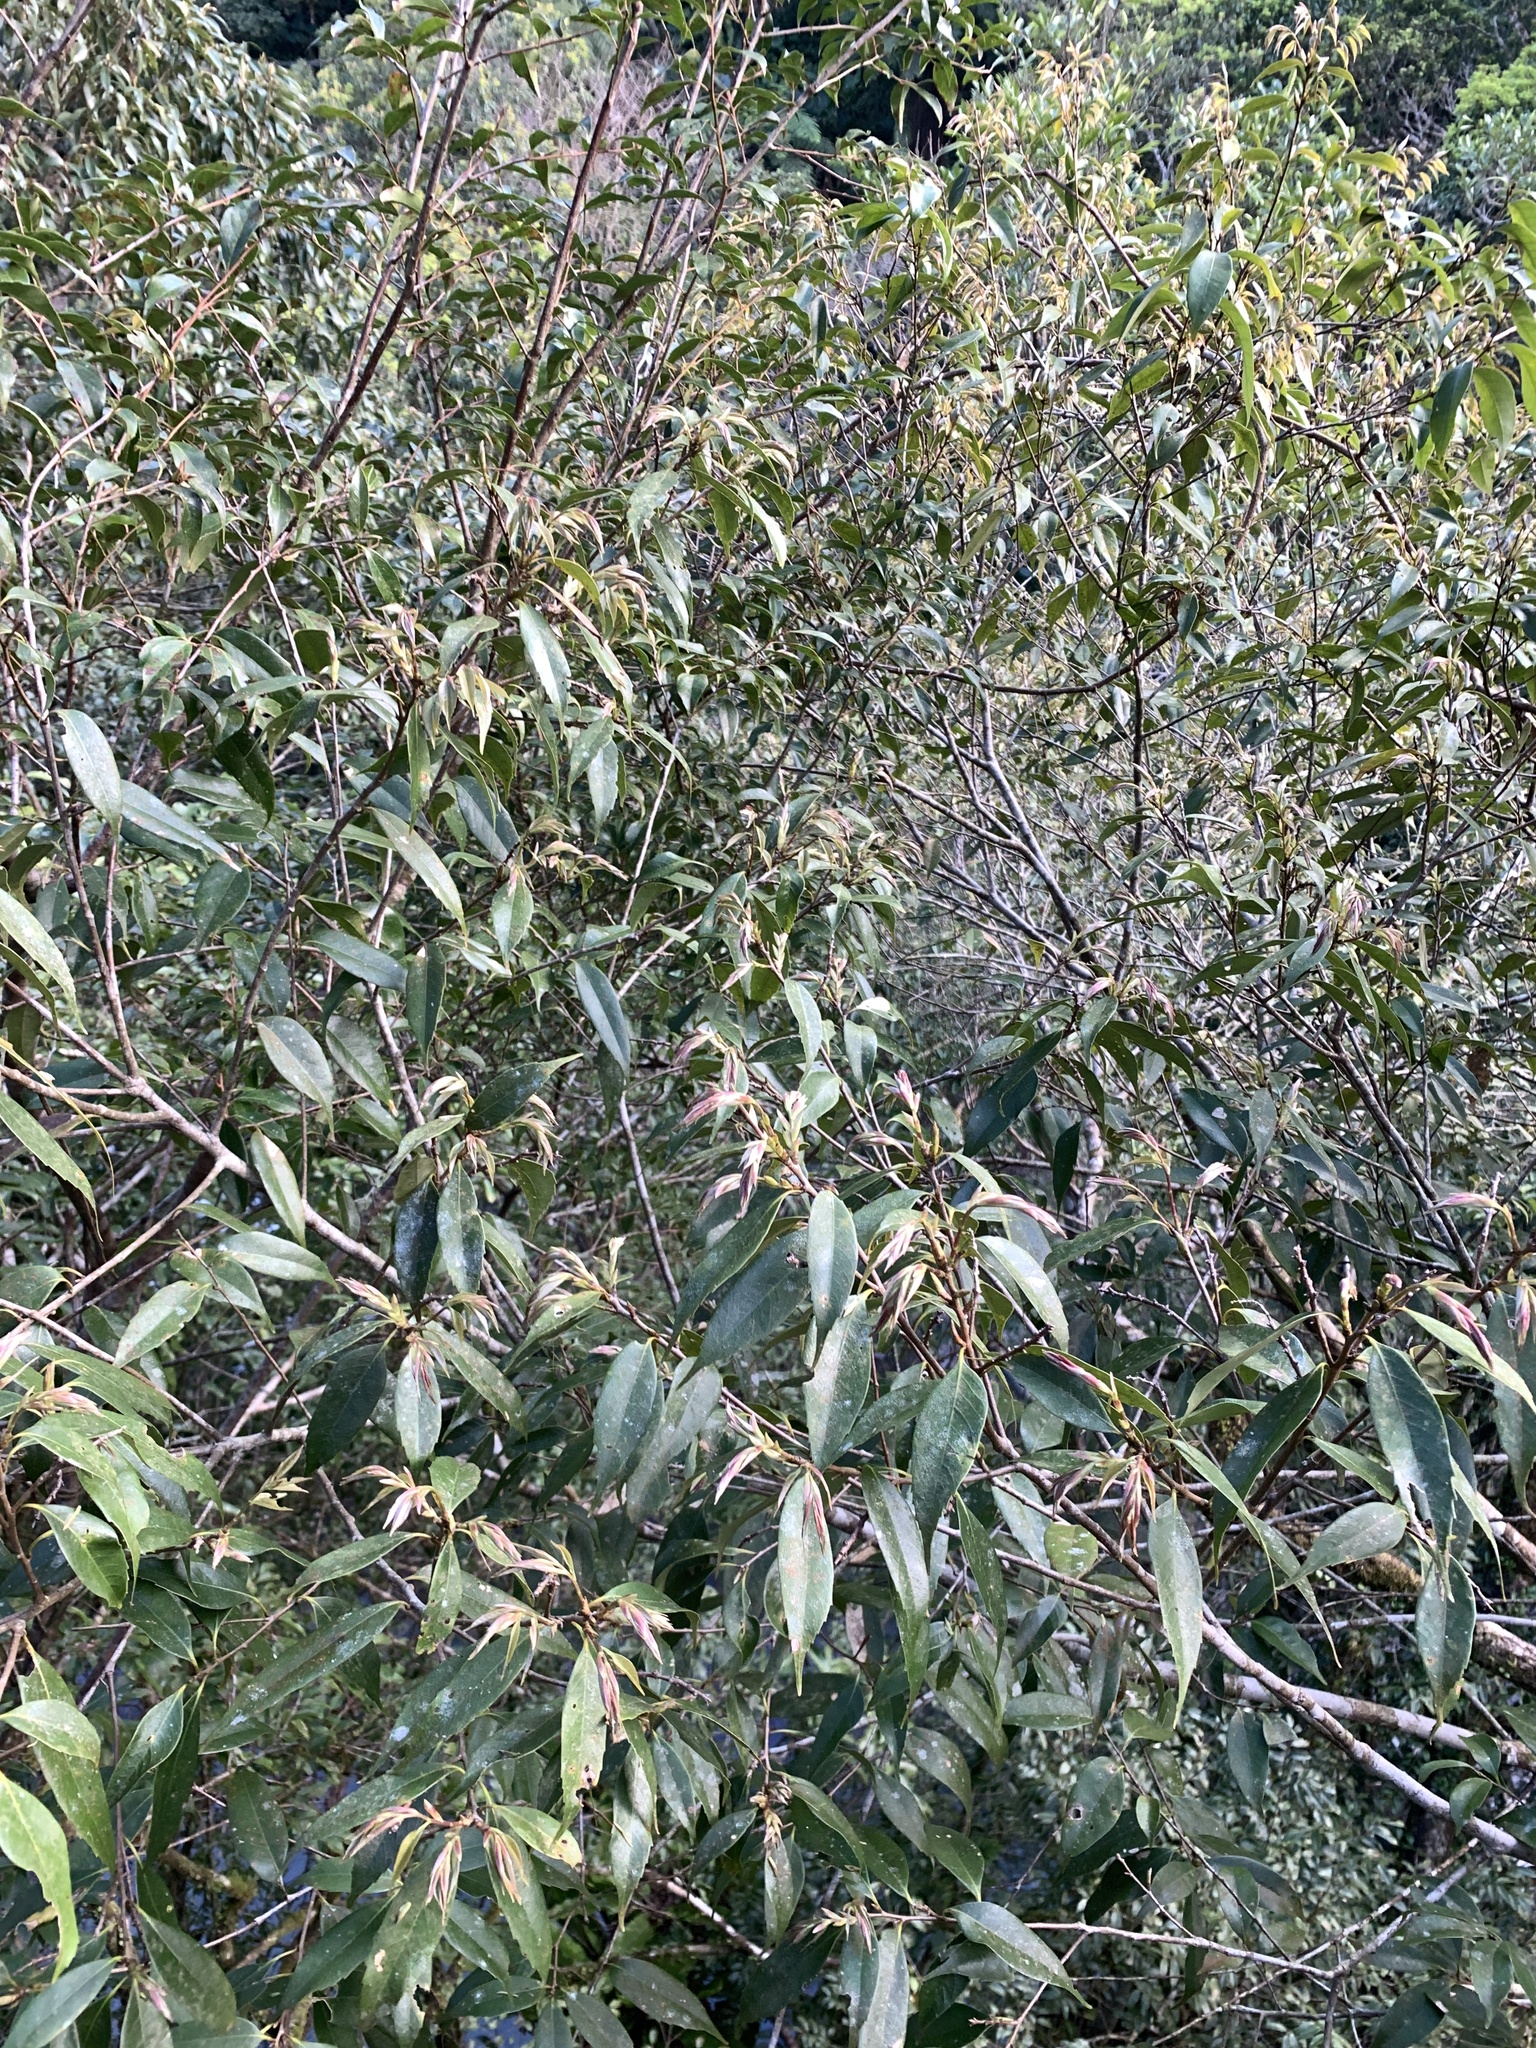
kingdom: Plantae
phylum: Tracheophyta
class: Magnoliopsida
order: Fagales
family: Fagaceae
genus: Lithocarpus
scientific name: Lithocarpus uraianus
